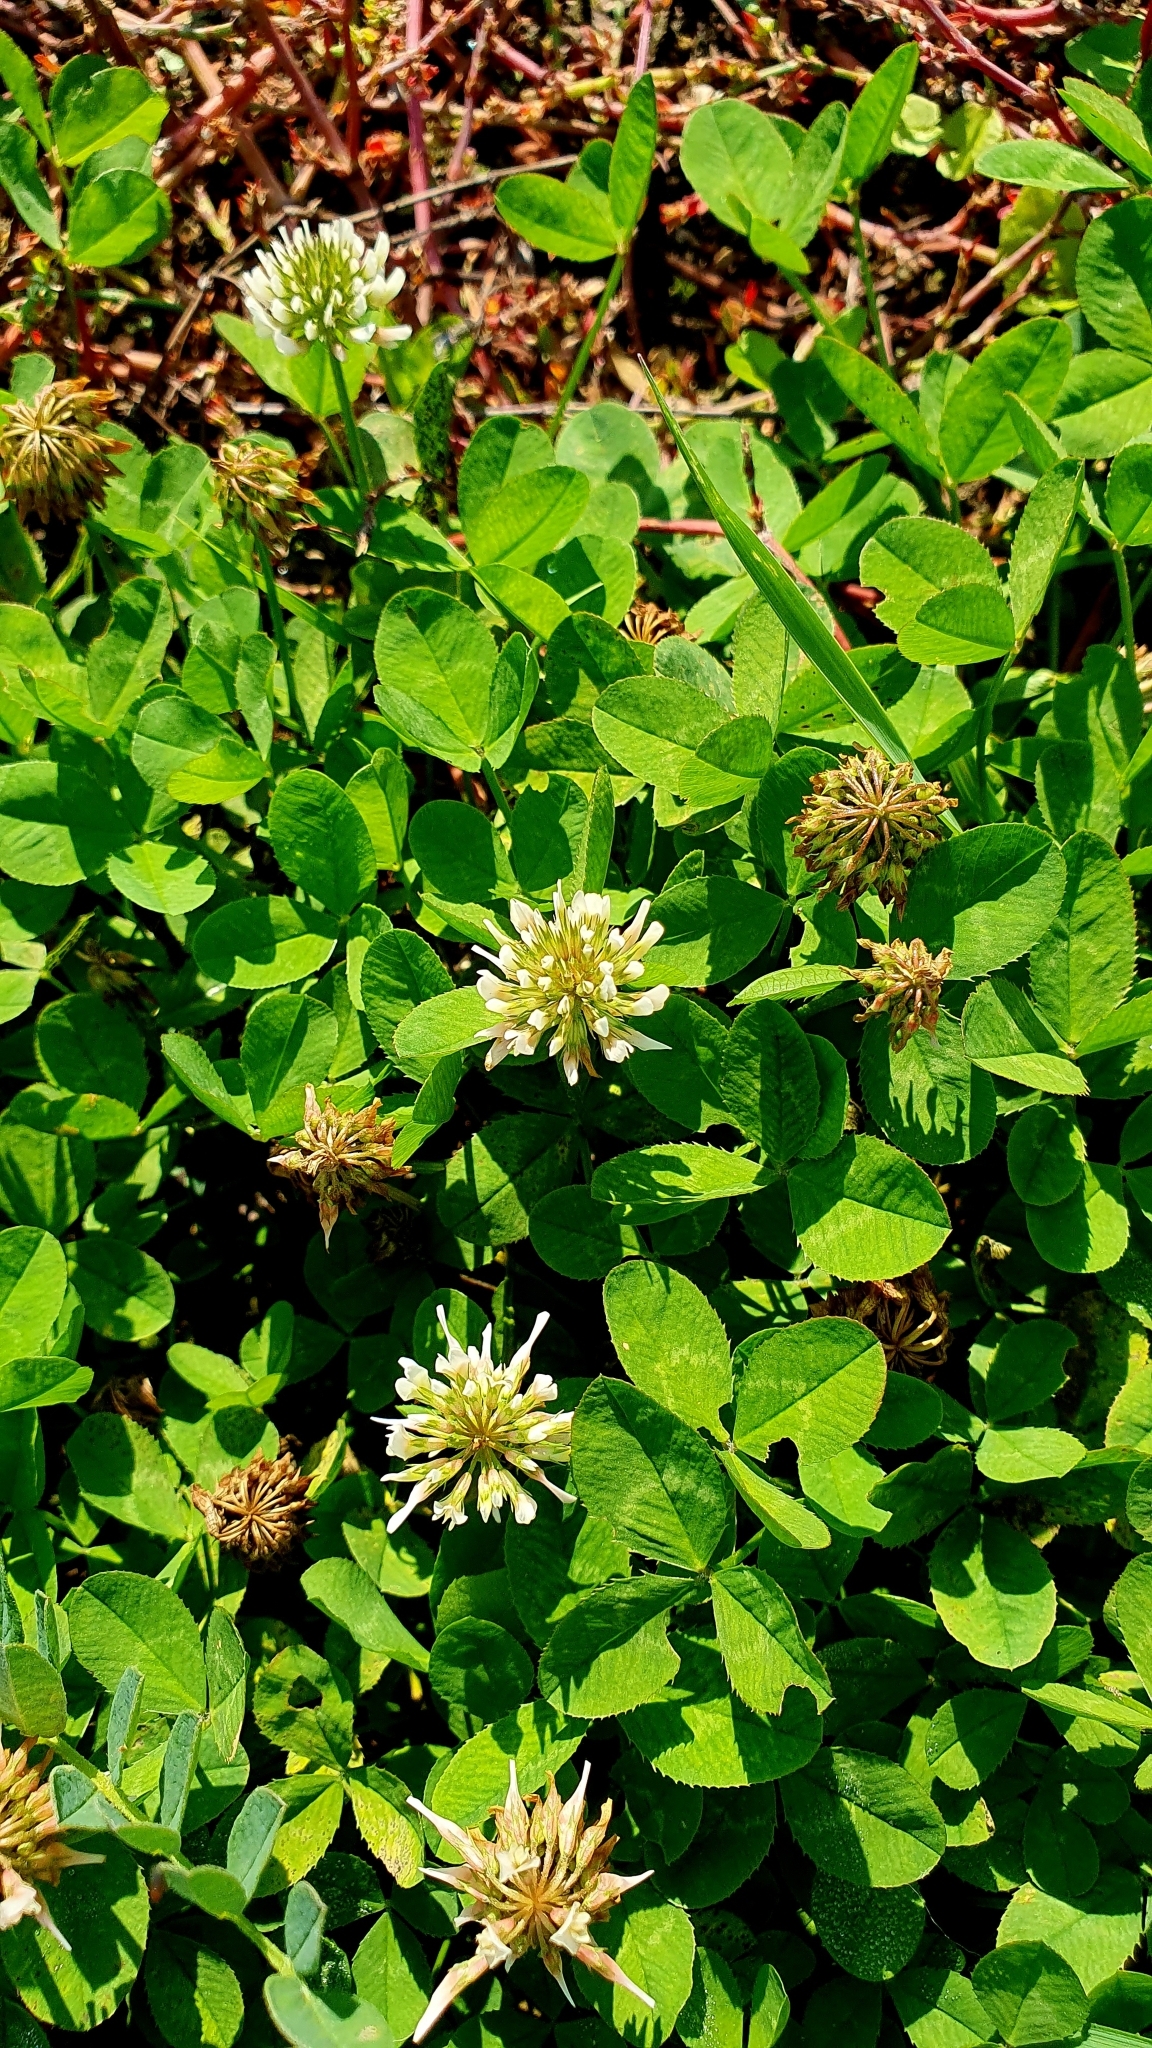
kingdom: Plantae
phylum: Tracheophyta
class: Magnoliopsida
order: Fabales
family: Fabaceae
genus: Trifolium
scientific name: Trifolium repens
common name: White clover
